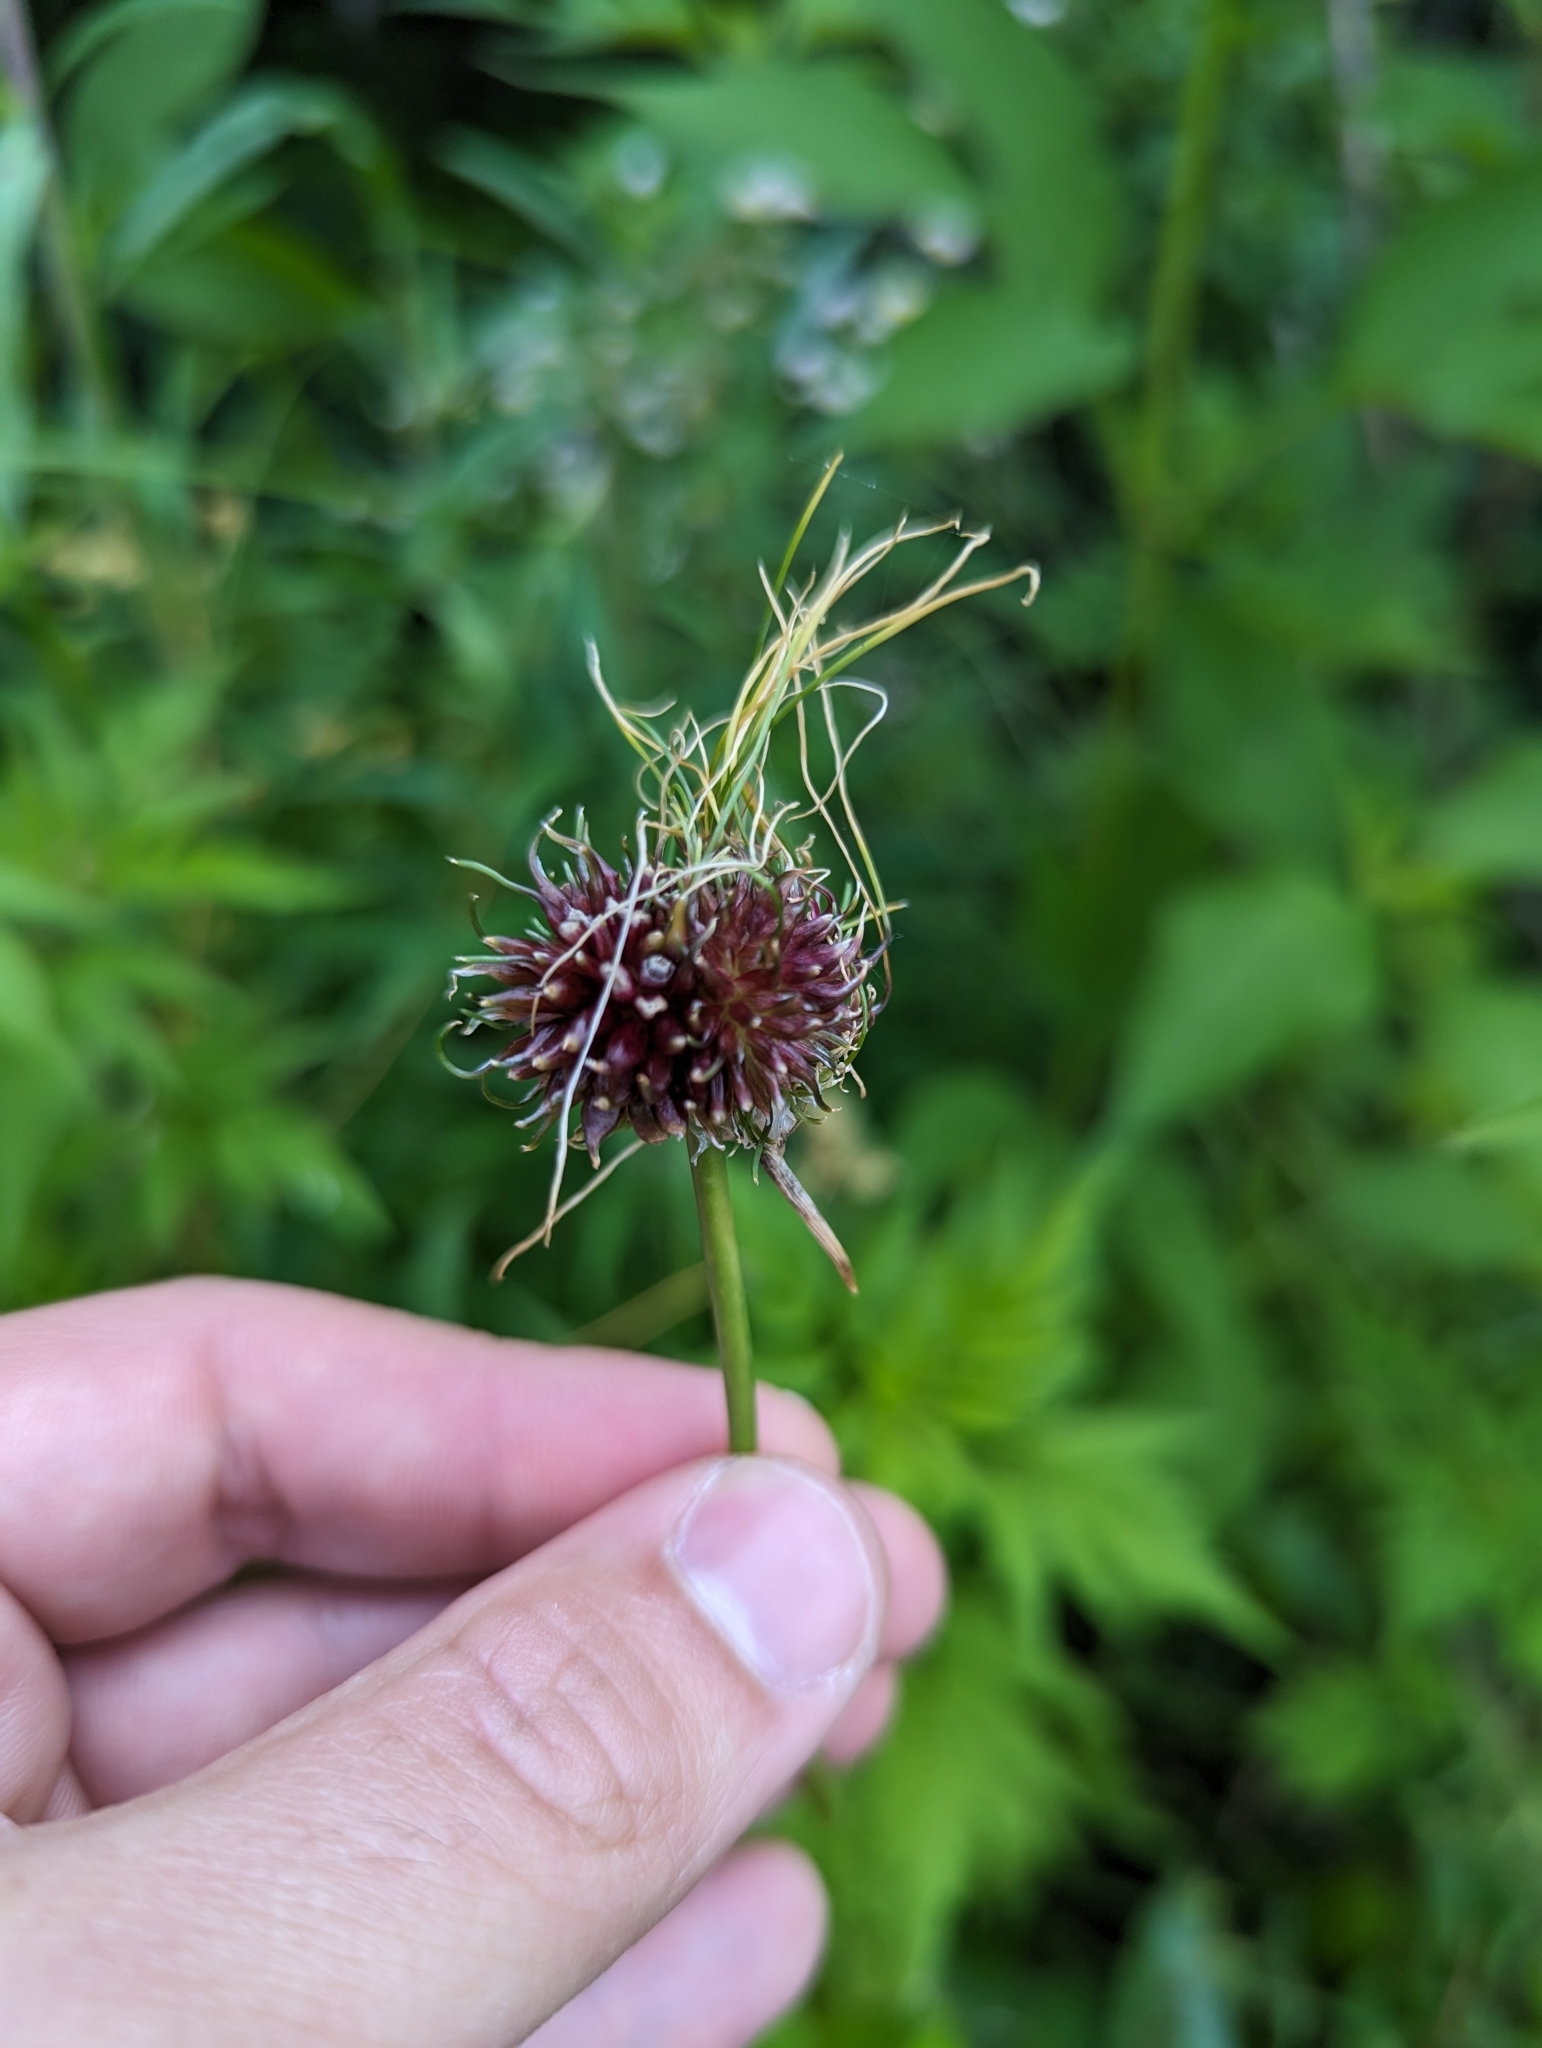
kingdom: Plantae
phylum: Tracheophyta
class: Liliopsida
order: Asparagales
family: Amaryllidaceae
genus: Allium
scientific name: Allium vineale
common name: Crow garlic
